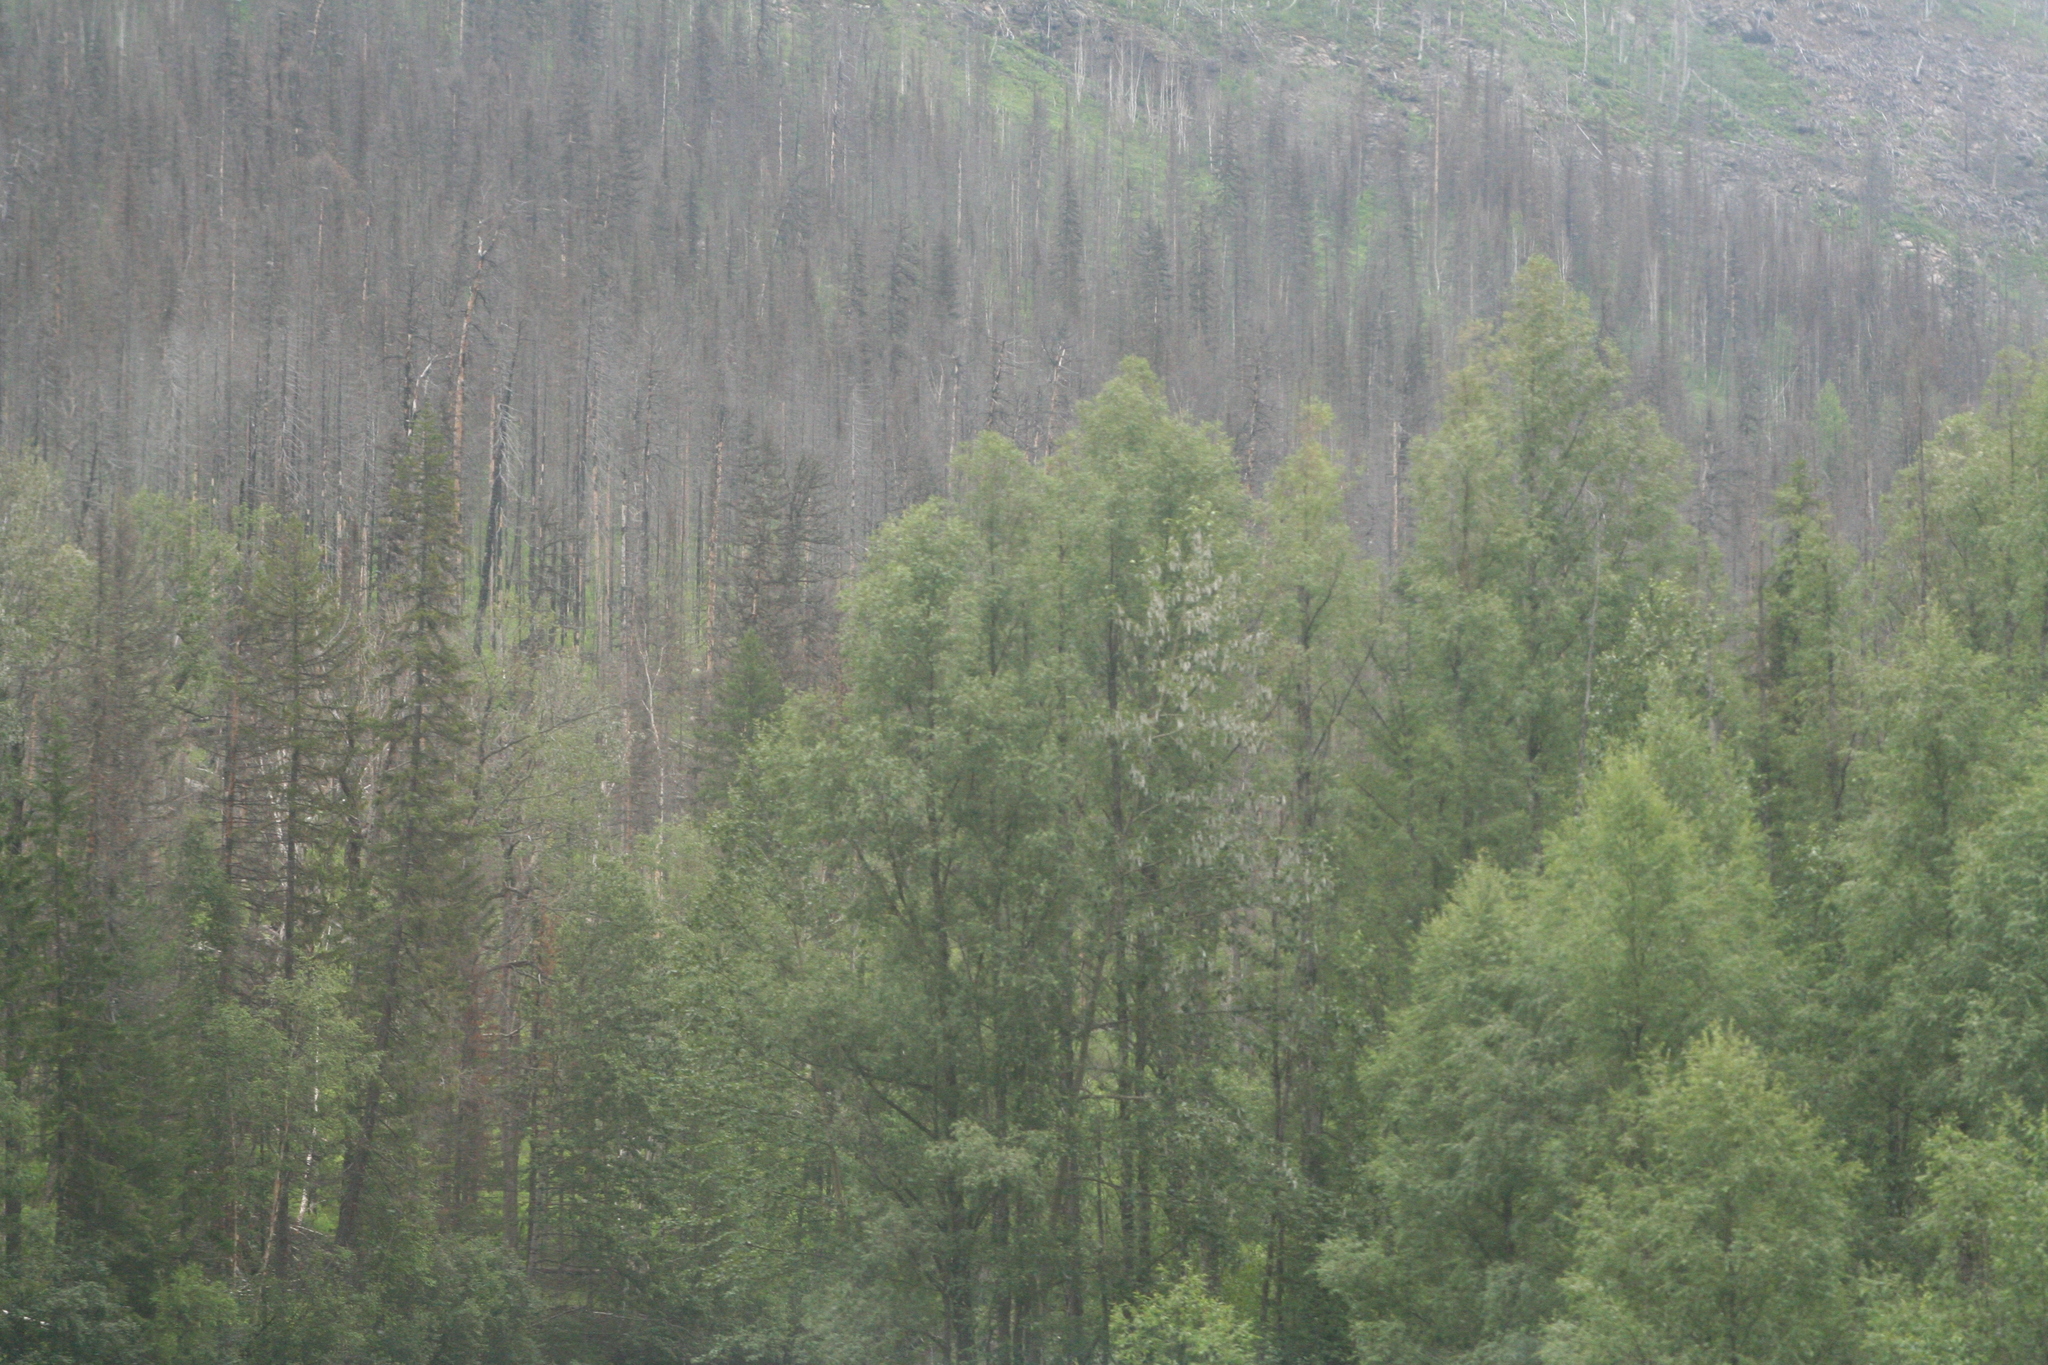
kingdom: Plantae
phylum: Tracheophyta
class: Pinopsida
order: Pinales
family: Pinaceae
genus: Picea
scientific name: Picea obovata
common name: Siberian spruce
